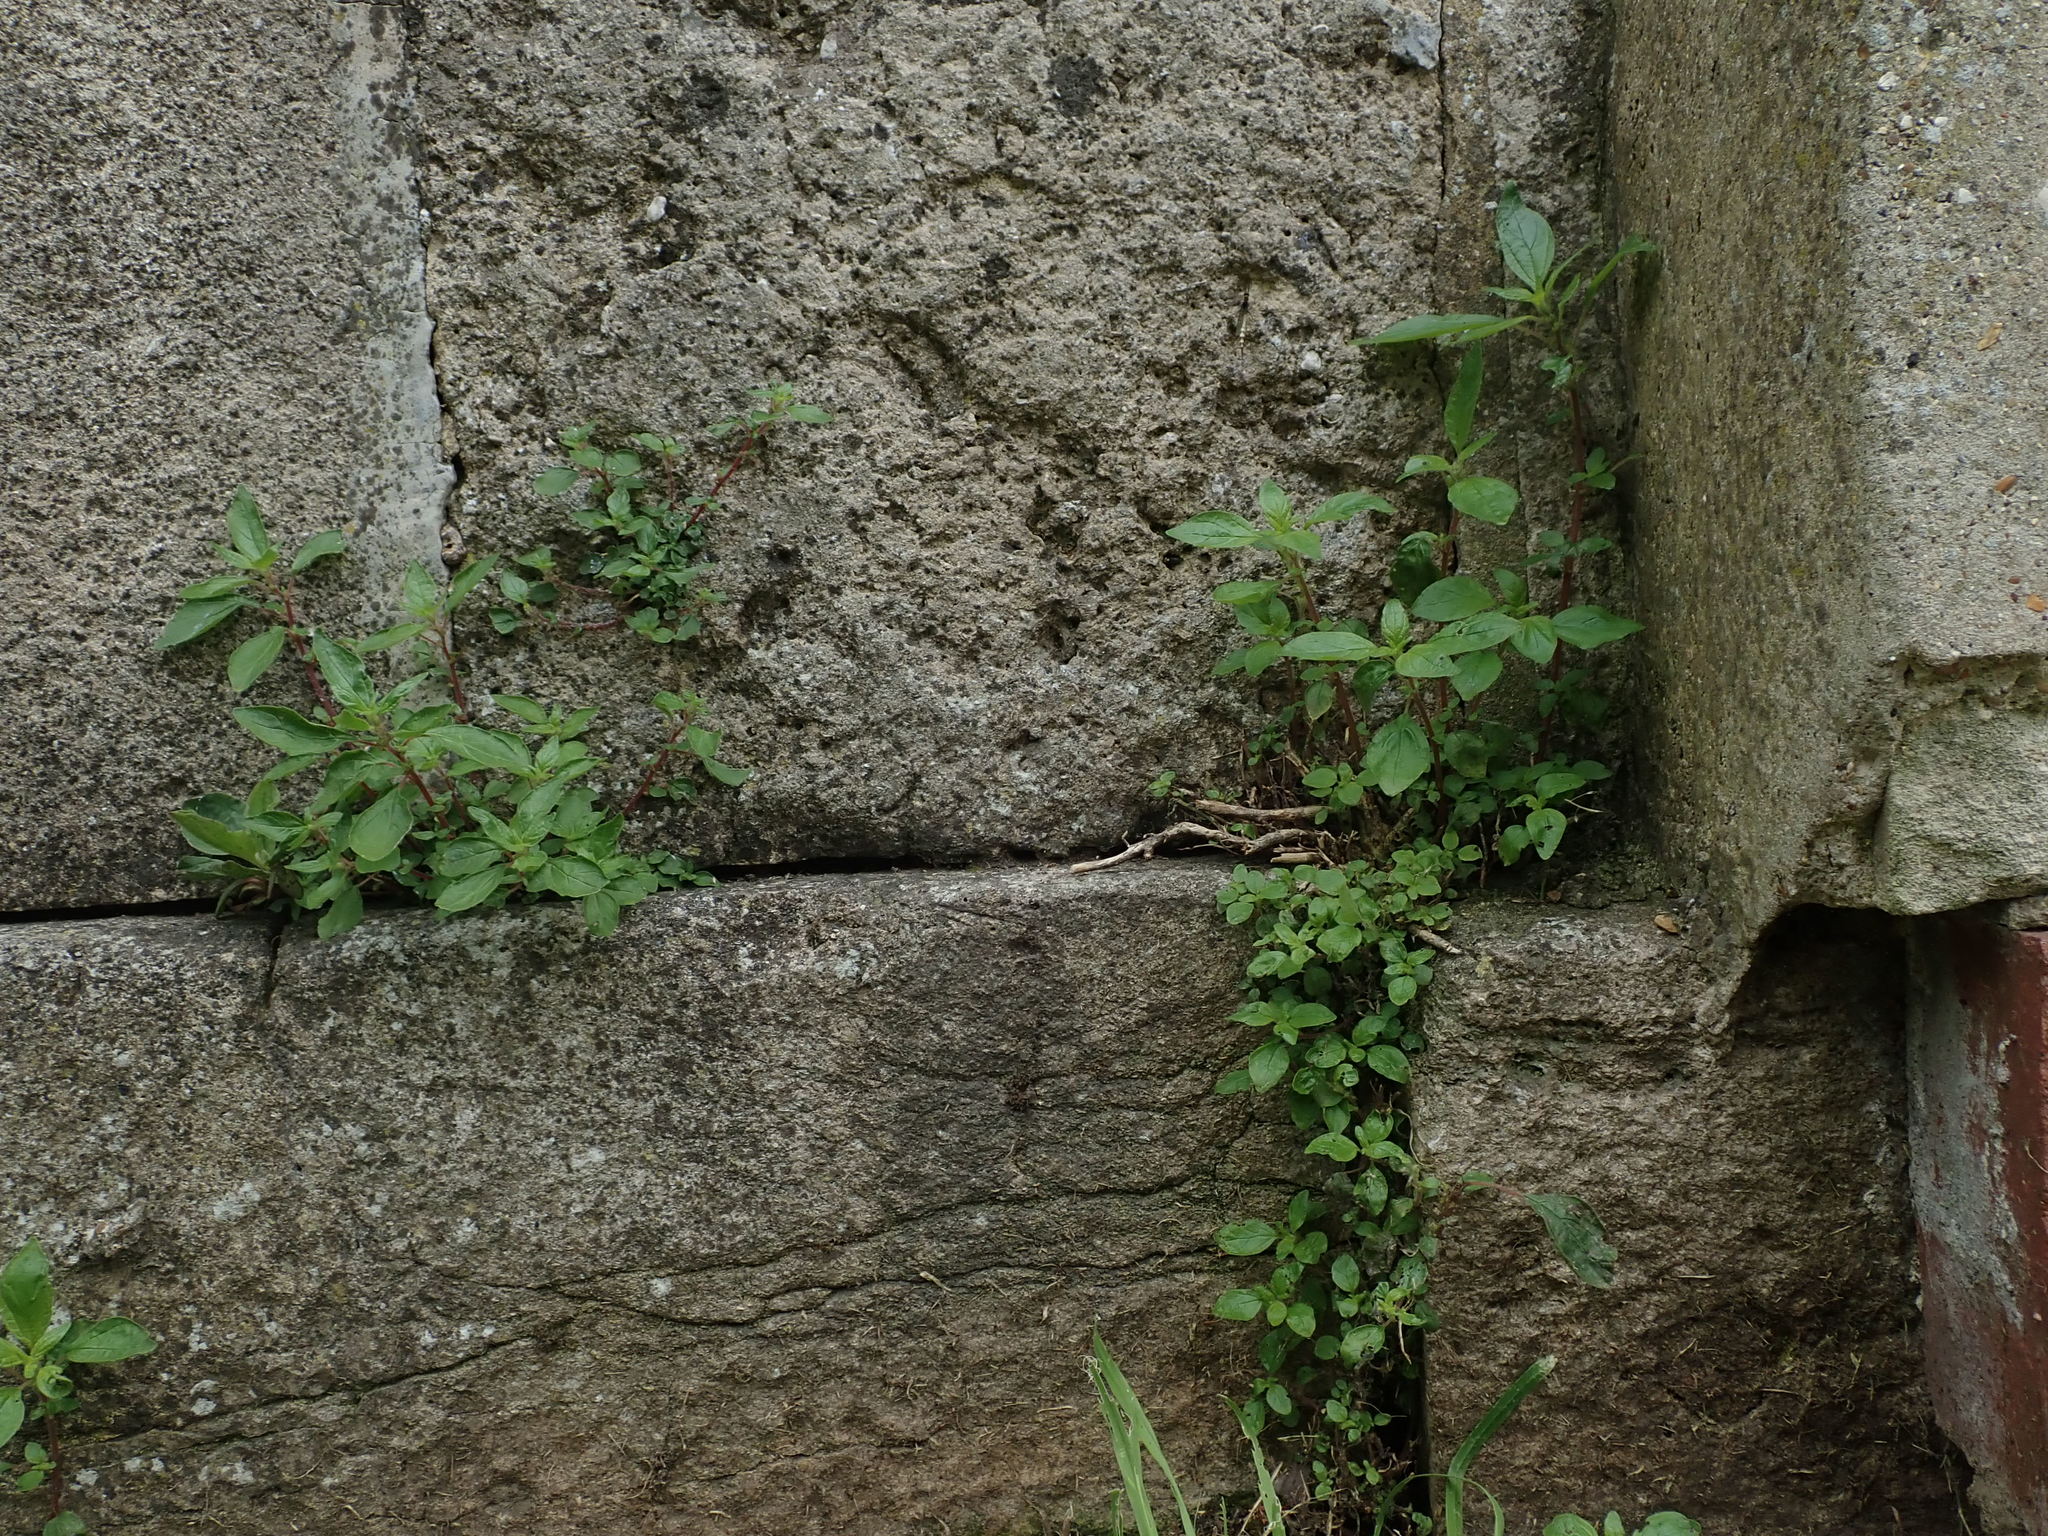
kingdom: Plantae
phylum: Tracheophyta
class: Magnoliopsida
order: Rosales
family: Urticaceae
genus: Parietaria
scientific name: Parietaria judaica
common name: Pellitory-of-the-wall
